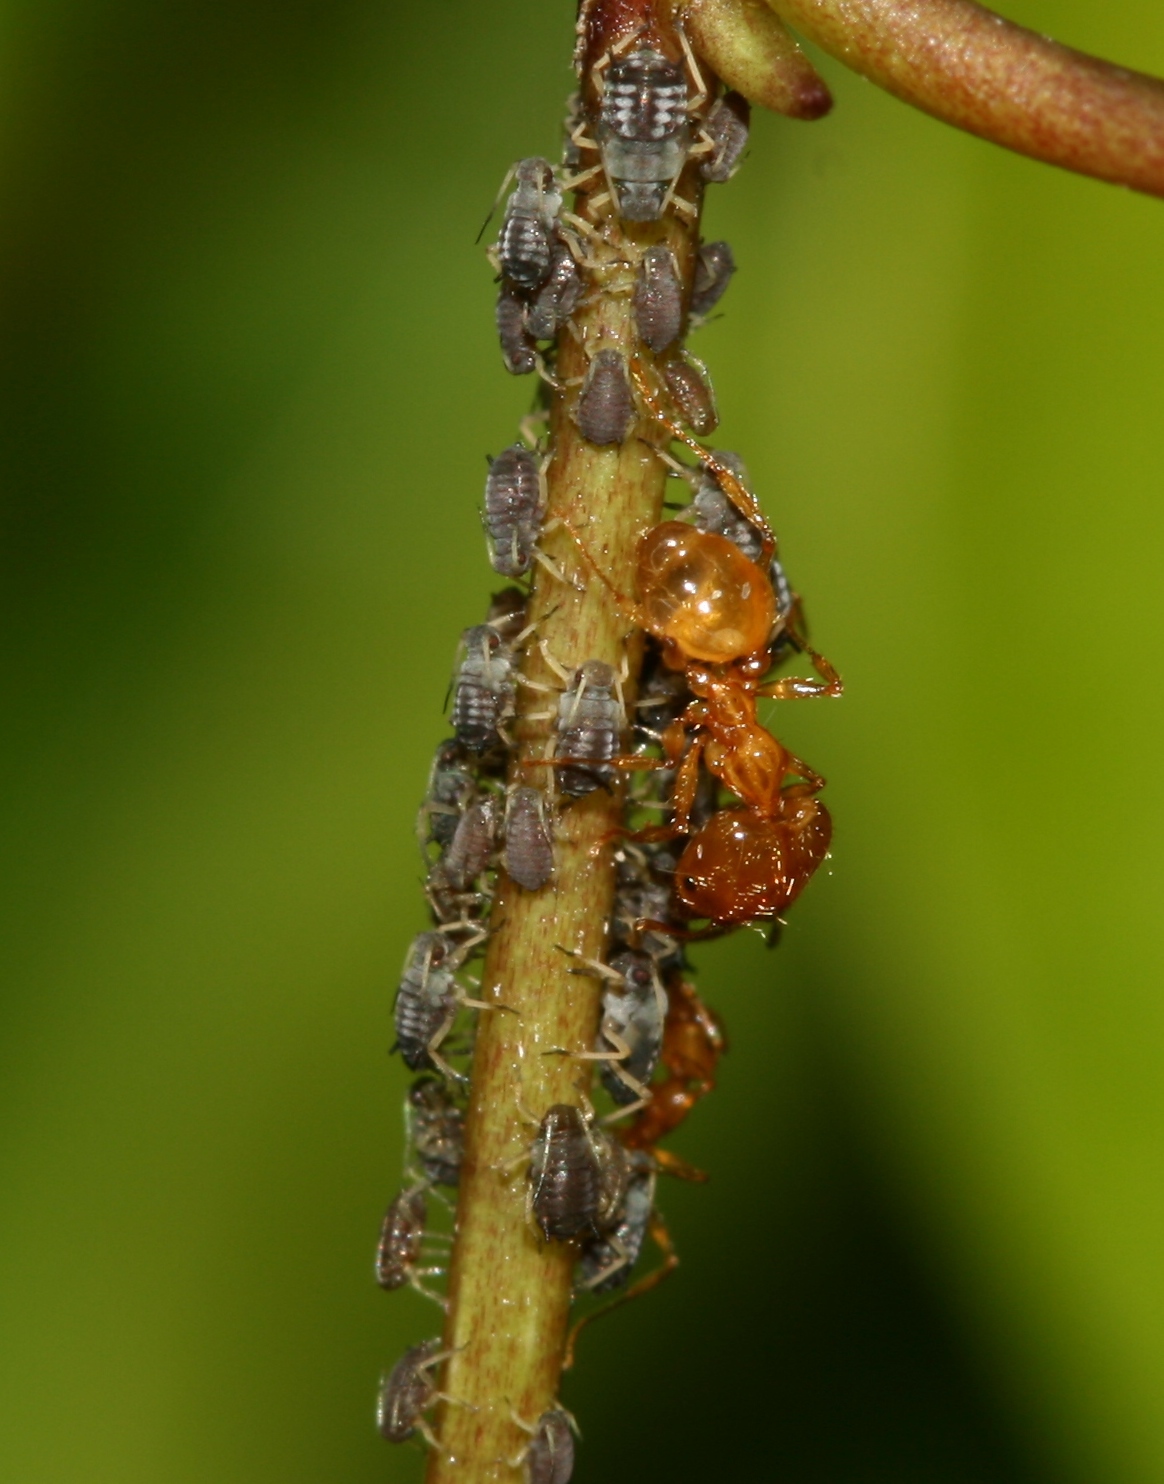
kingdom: Animalia
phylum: Arthropoda
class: Insecta
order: Hymenoptera
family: Formicidae
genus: Pheidole
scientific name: Pheidole pallidula
